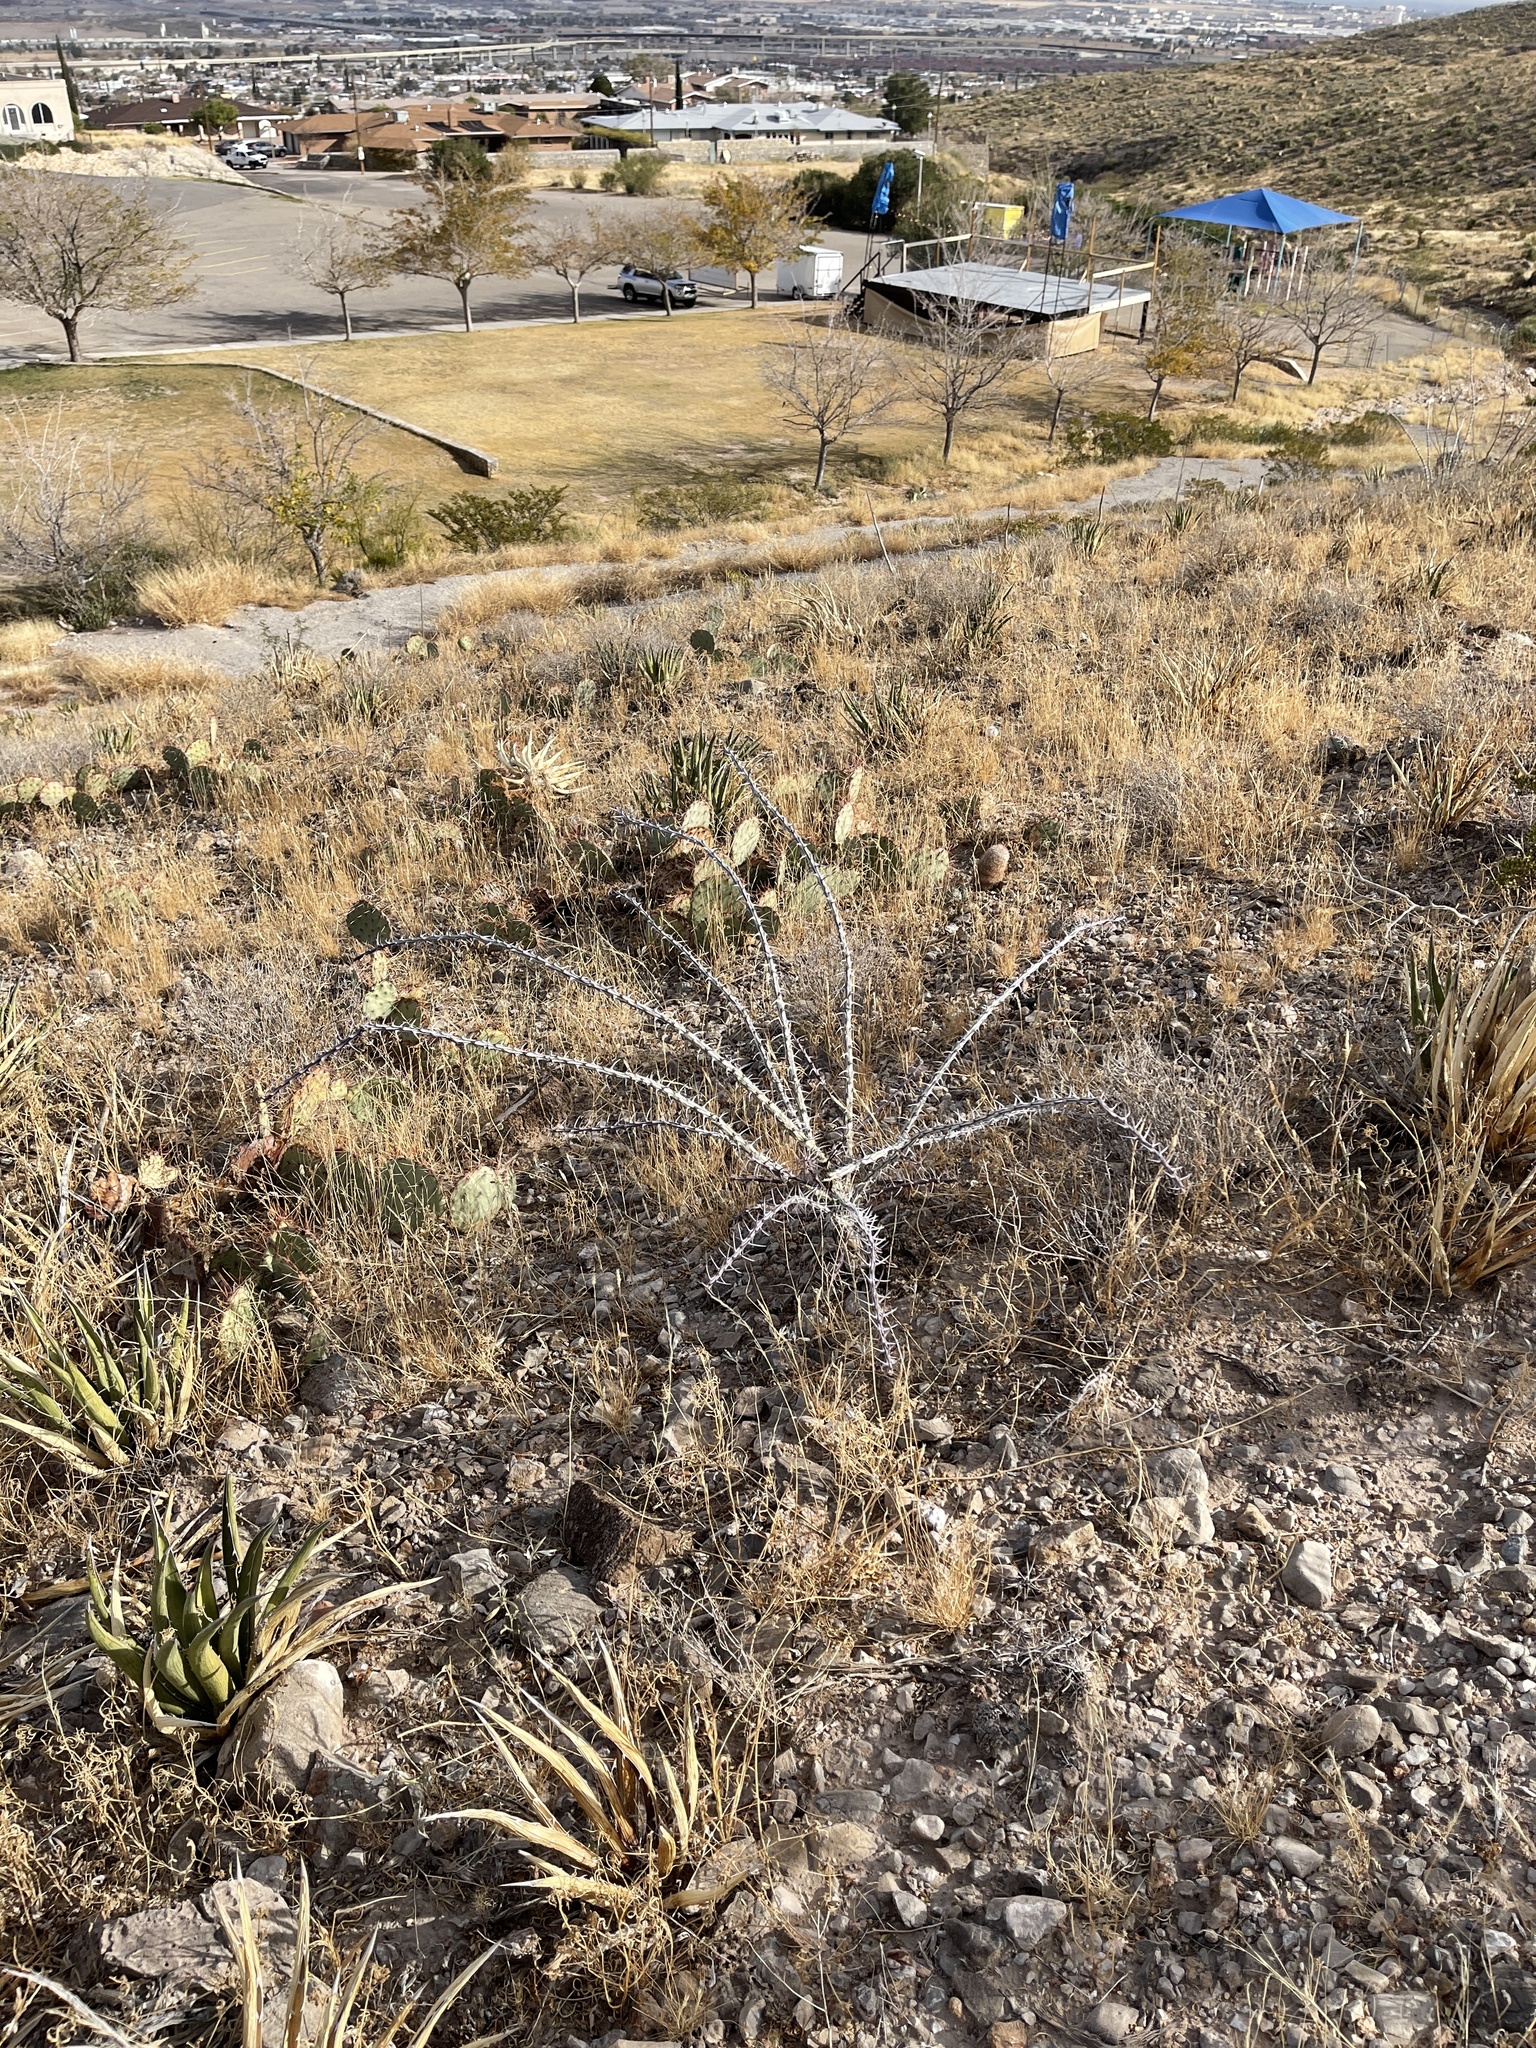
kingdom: Plantae
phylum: Tracheophyta
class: Magnoliopsida
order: Ericales
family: Fouquieriaceae
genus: Fouquieria
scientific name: Fouquieria splendens
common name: Vine-cactus
